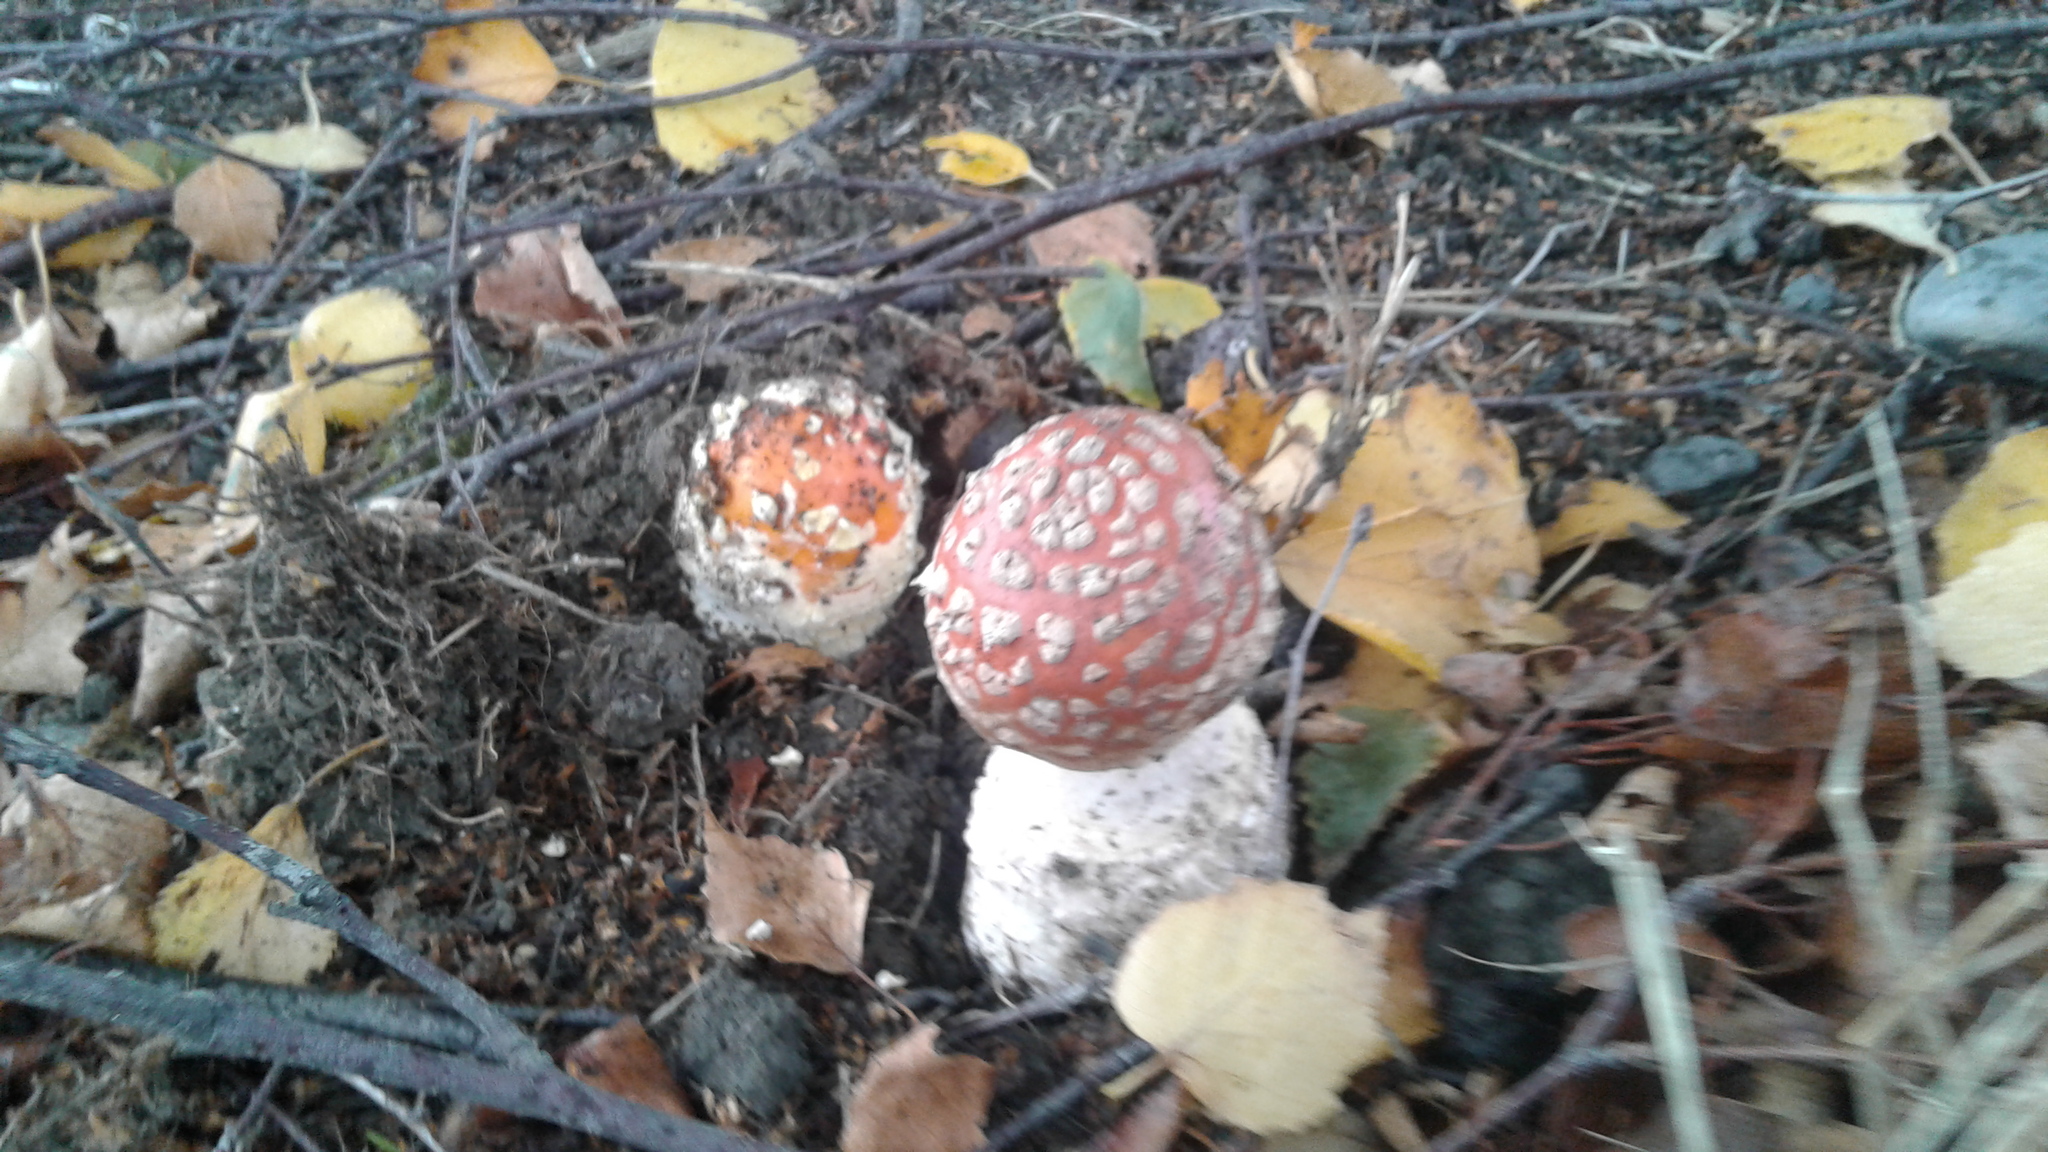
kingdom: Fungi
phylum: Basidiomycota
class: Agaricomycetes
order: Agaricales
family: Amanitaceae
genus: Amanita
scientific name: Amanita muscaria
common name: Fly agaric
